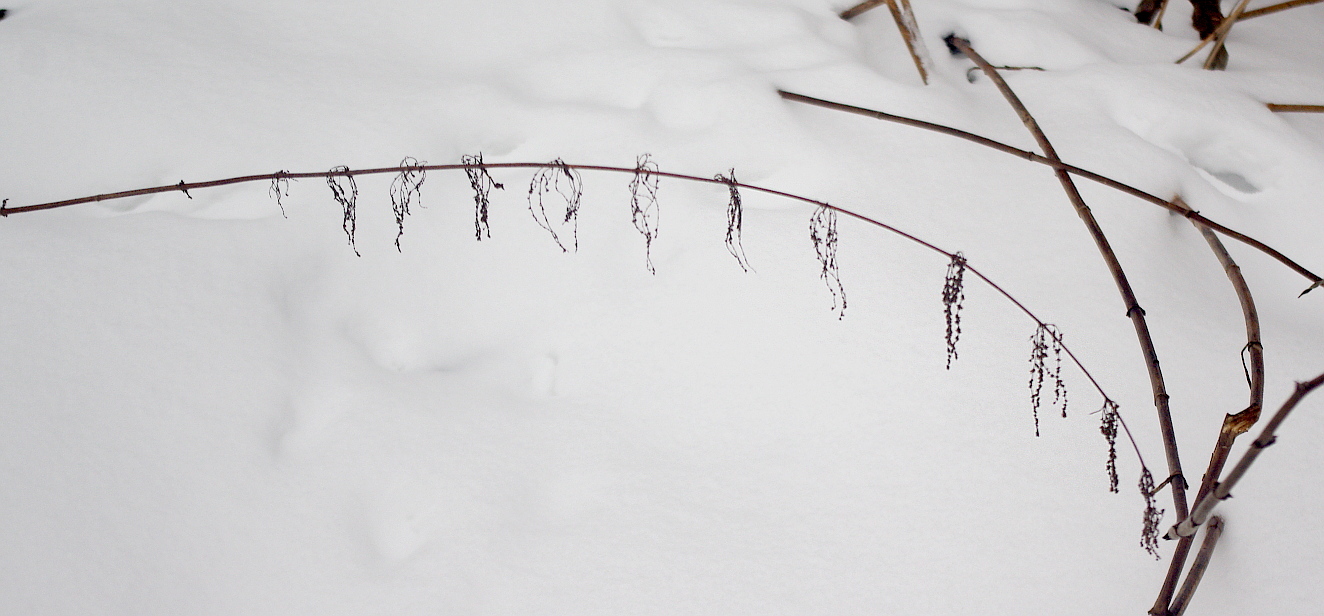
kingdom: Plantae
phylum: Tracheophyta
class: Magnoliopsida
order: Rosales
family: Urticaceae
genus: Urtica
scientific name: Urtica dioica
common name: Common nettle
